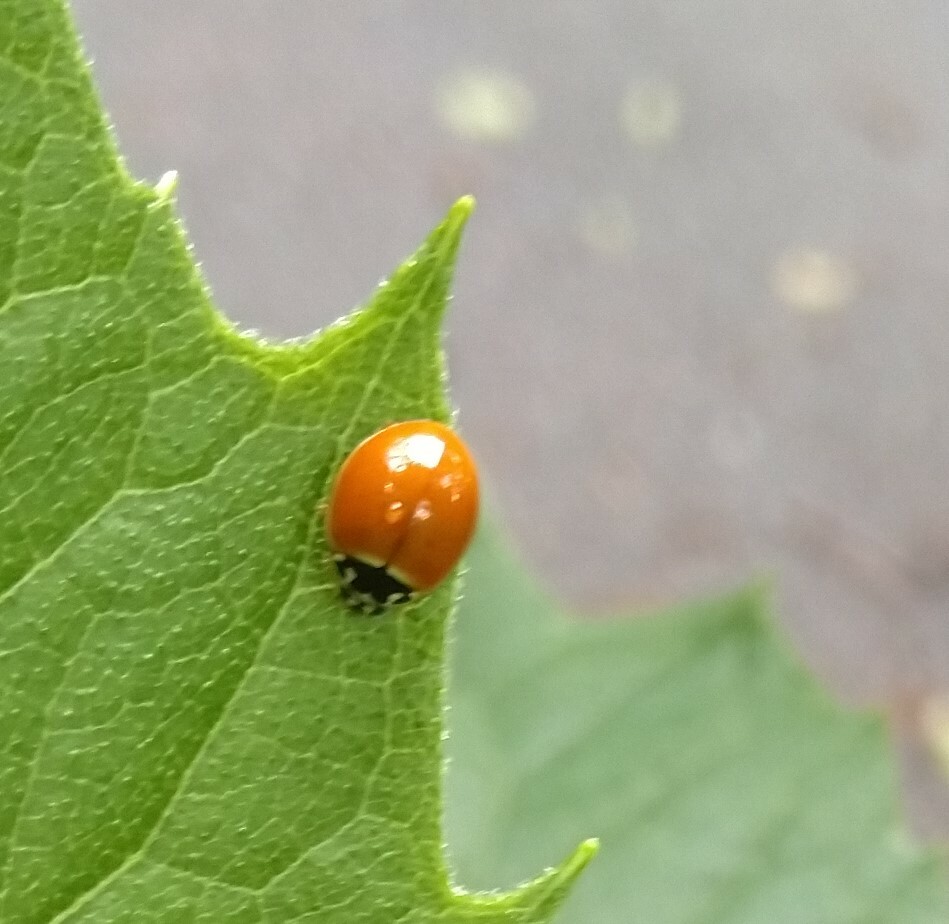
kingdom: Animalia
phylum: Arthropoda
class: Insecta
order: Coleoptera
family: Coccinellidae
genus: Cycloneda
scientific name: Cycloneda munda
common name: Polished lady beetle
